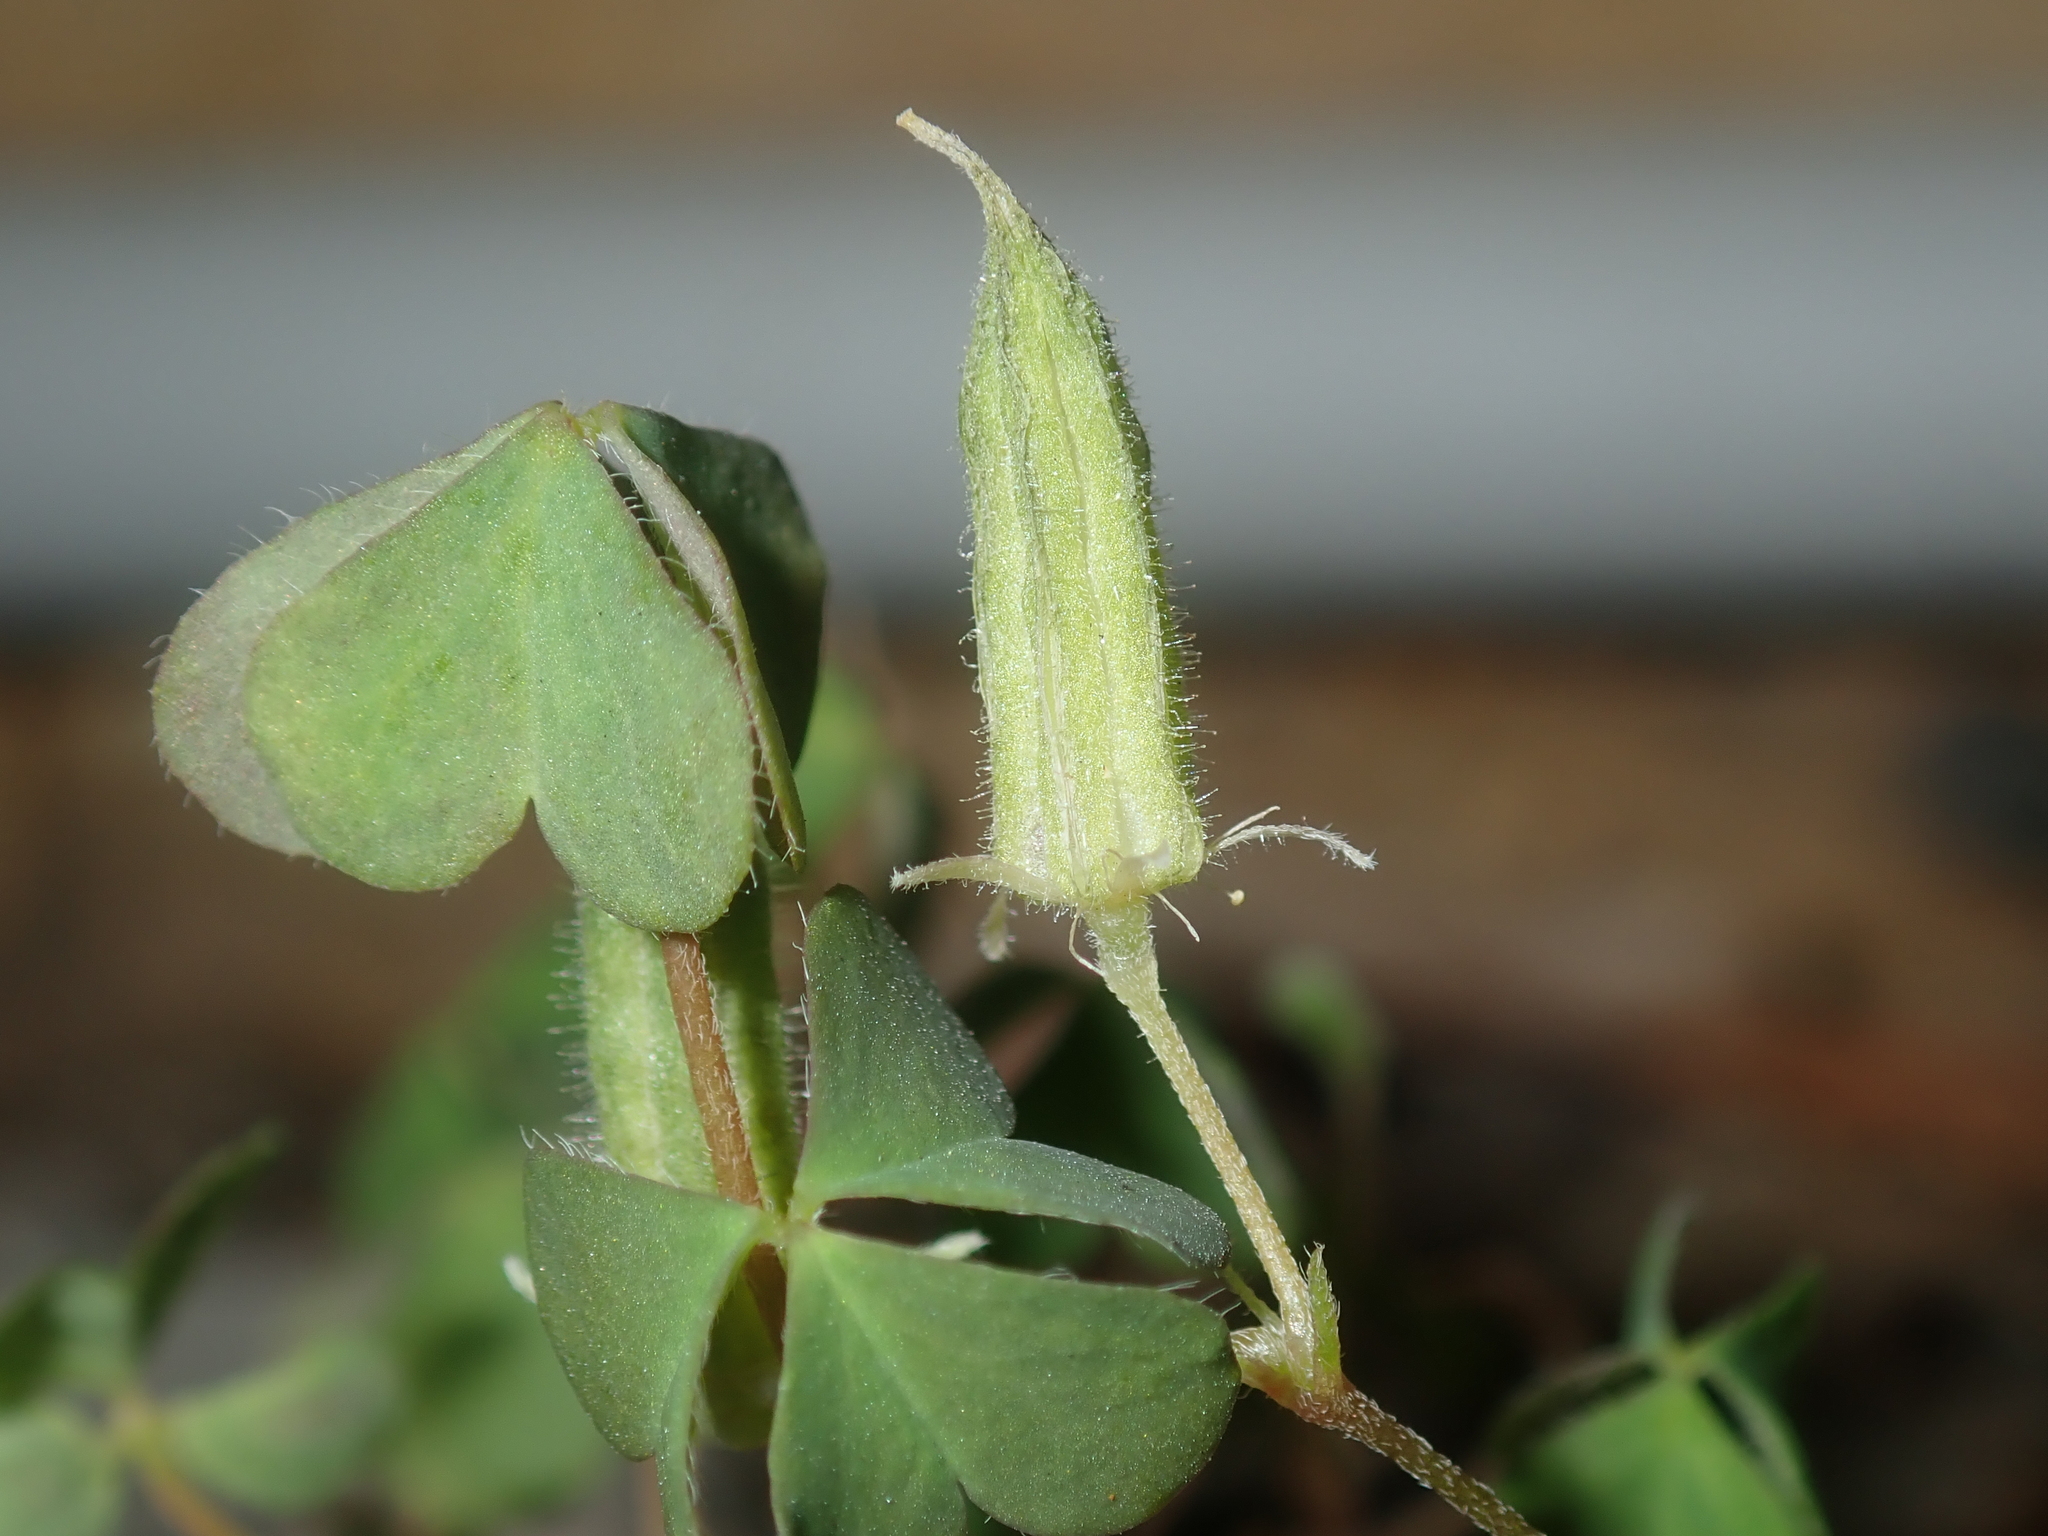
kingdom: Plantae
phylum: Tracheophyta
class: Magnoliopsida
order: Oxalidales
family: Oxalidaceae
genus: Oxalis
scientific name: Oxalis perennans
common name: Woody-rooted yellow-sorrel
